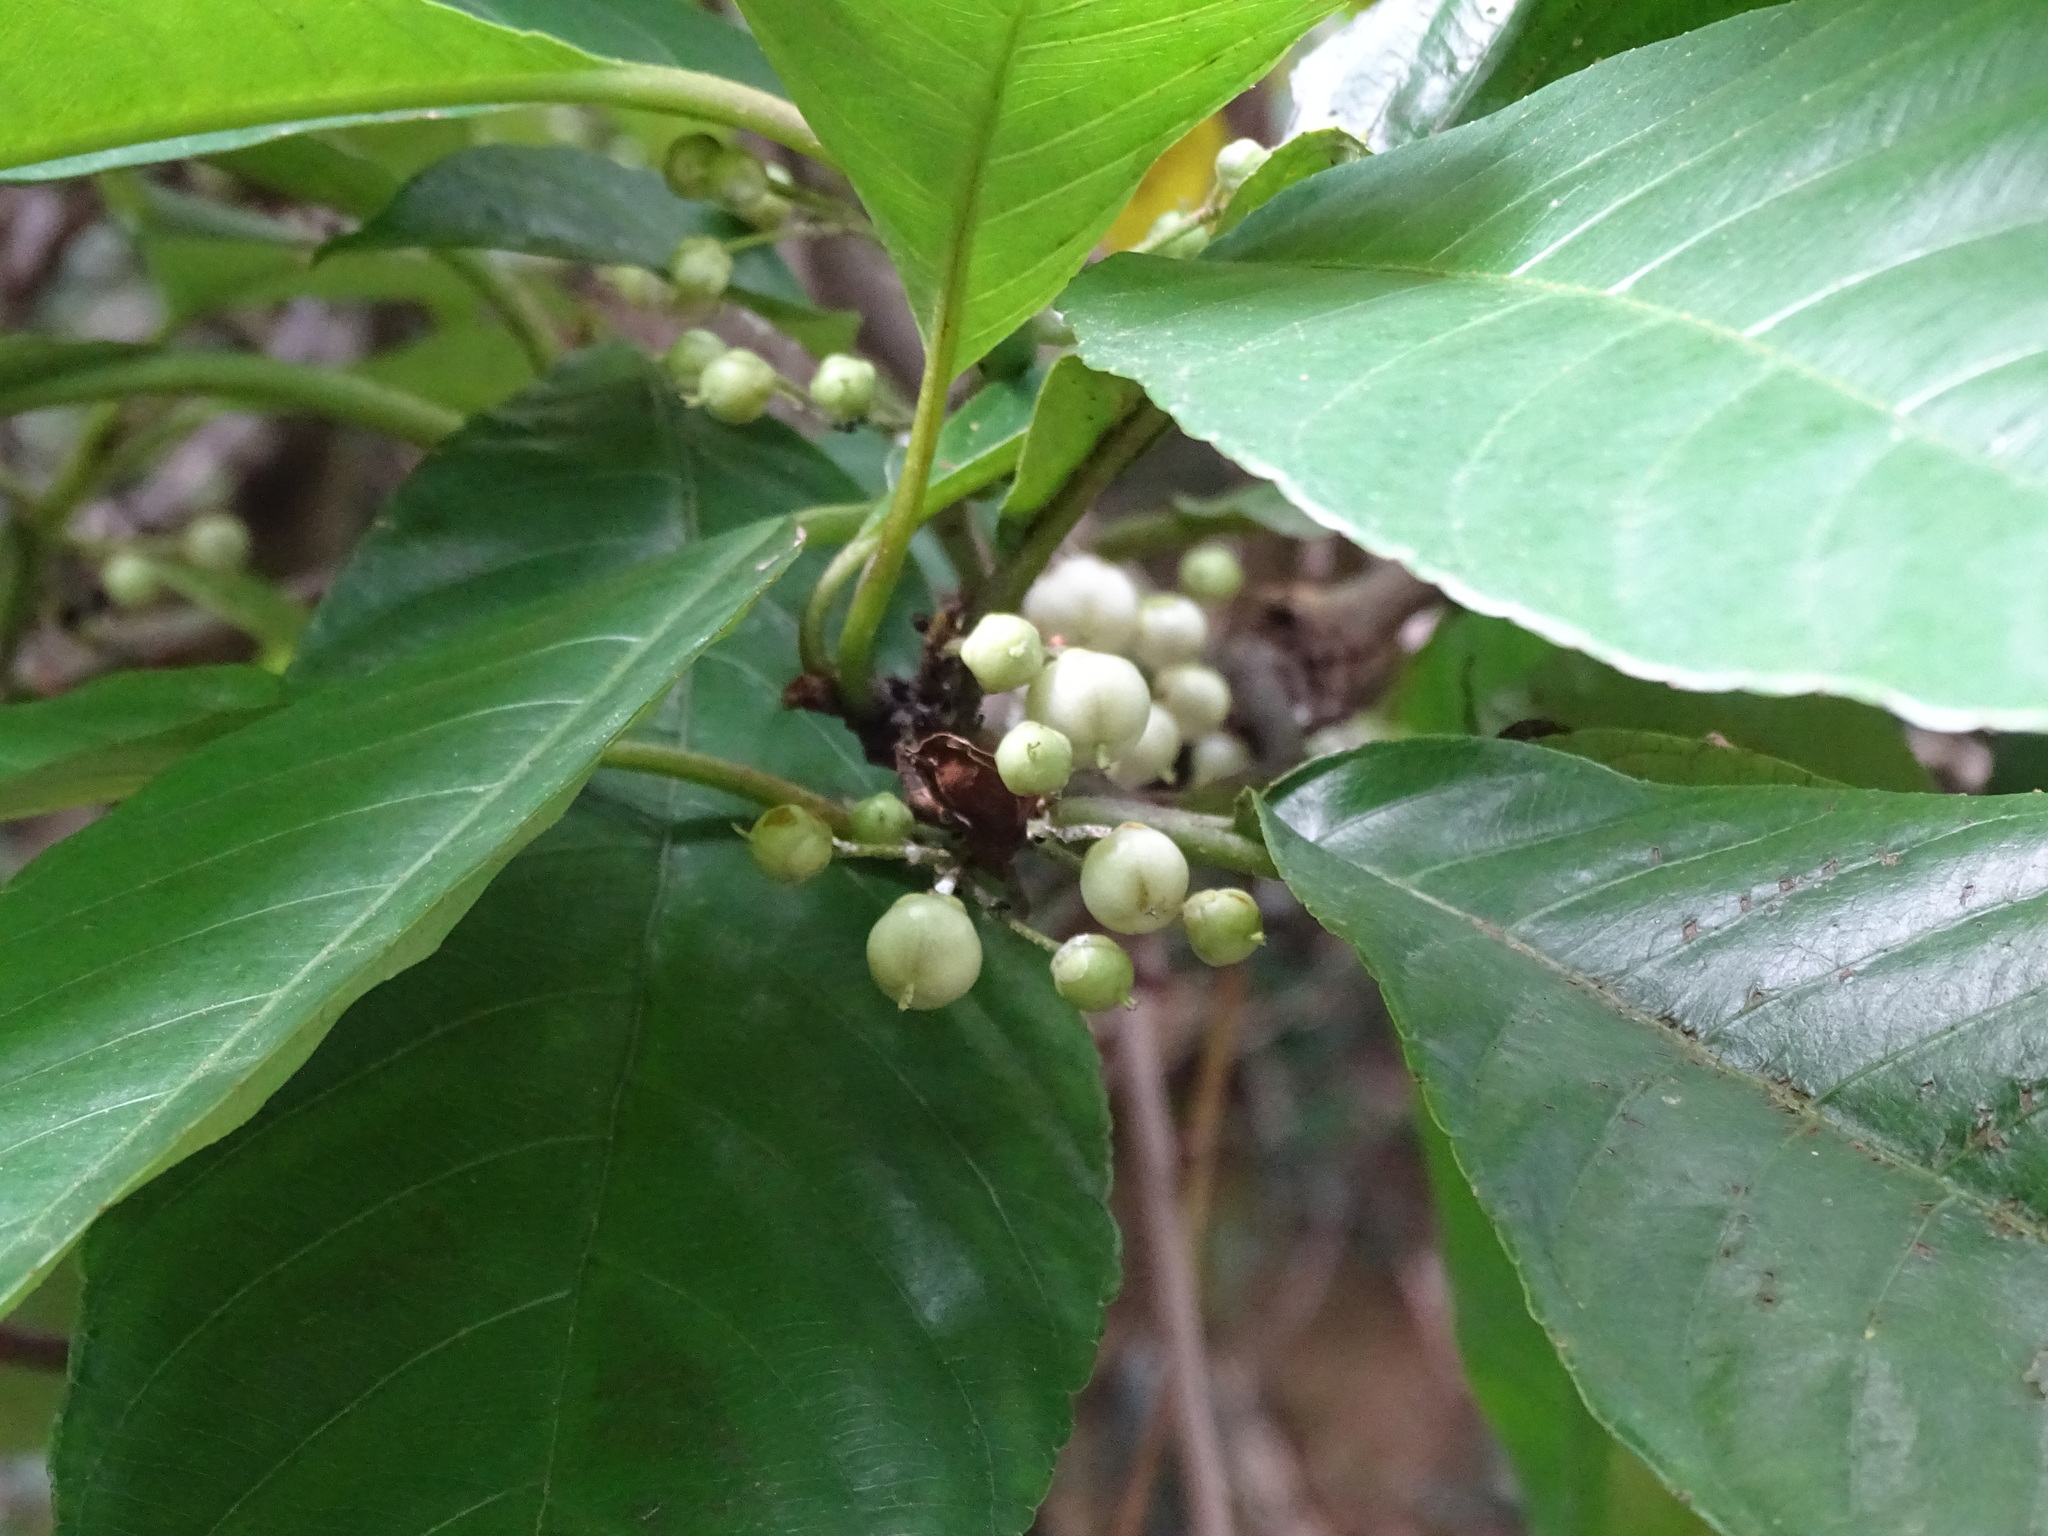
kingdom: Plantae
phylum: Tracheophyta
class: Magnoliopsida
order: Ericales
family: Actinidiaceae
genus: Saurauia
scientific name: Saurauia tristyla
